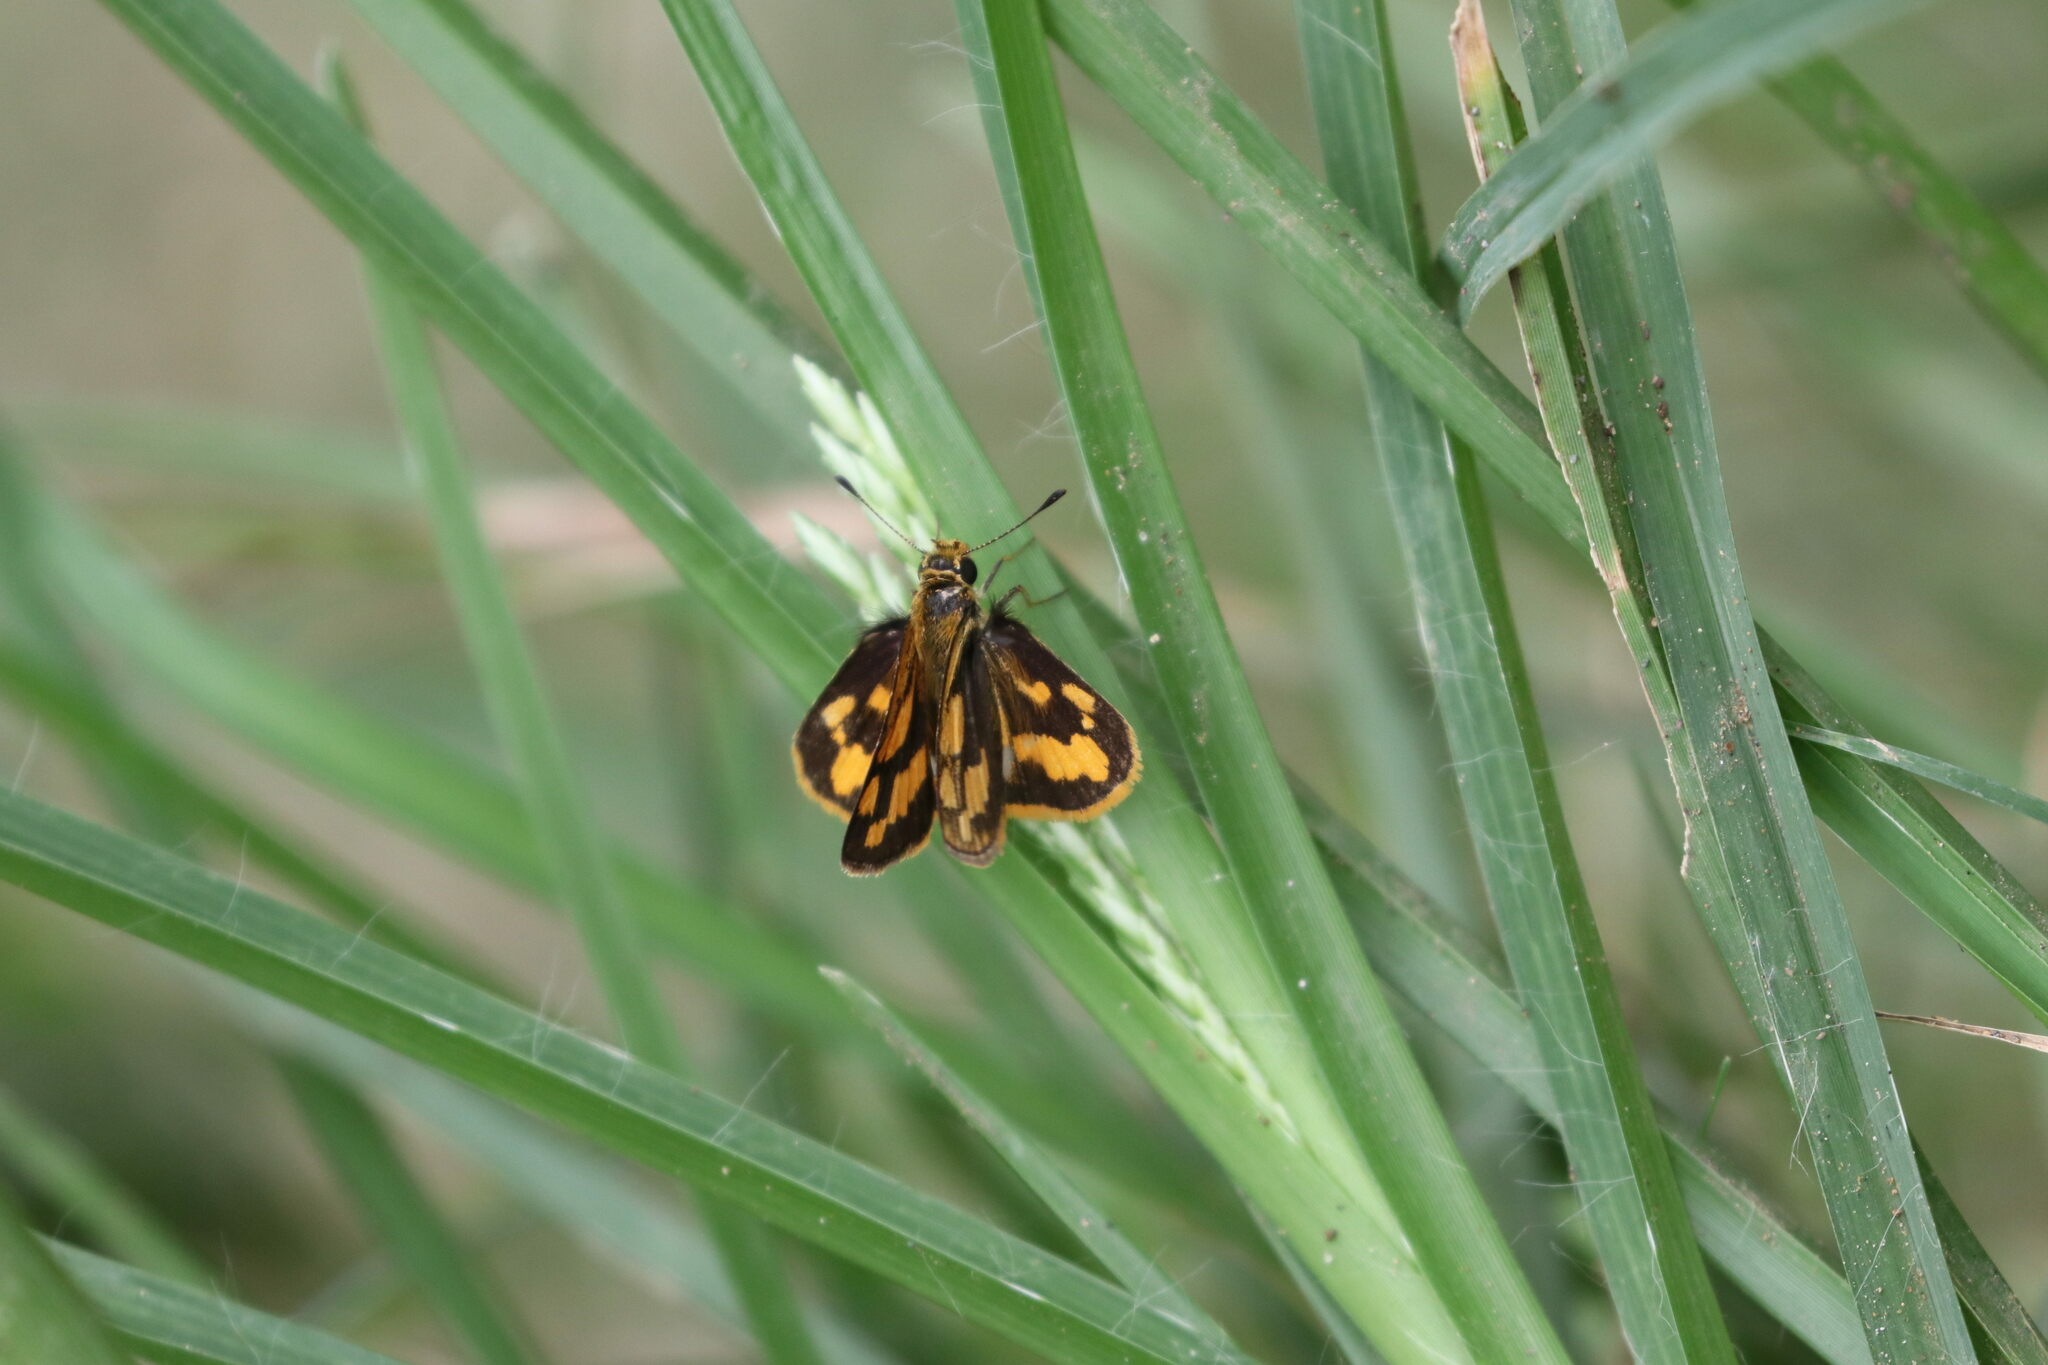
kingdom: Animalia
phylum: Arthropoda
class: Insecta
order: Lepidoptera
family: Hesperiidae
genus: Taractrocera
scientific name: Taractrocera
